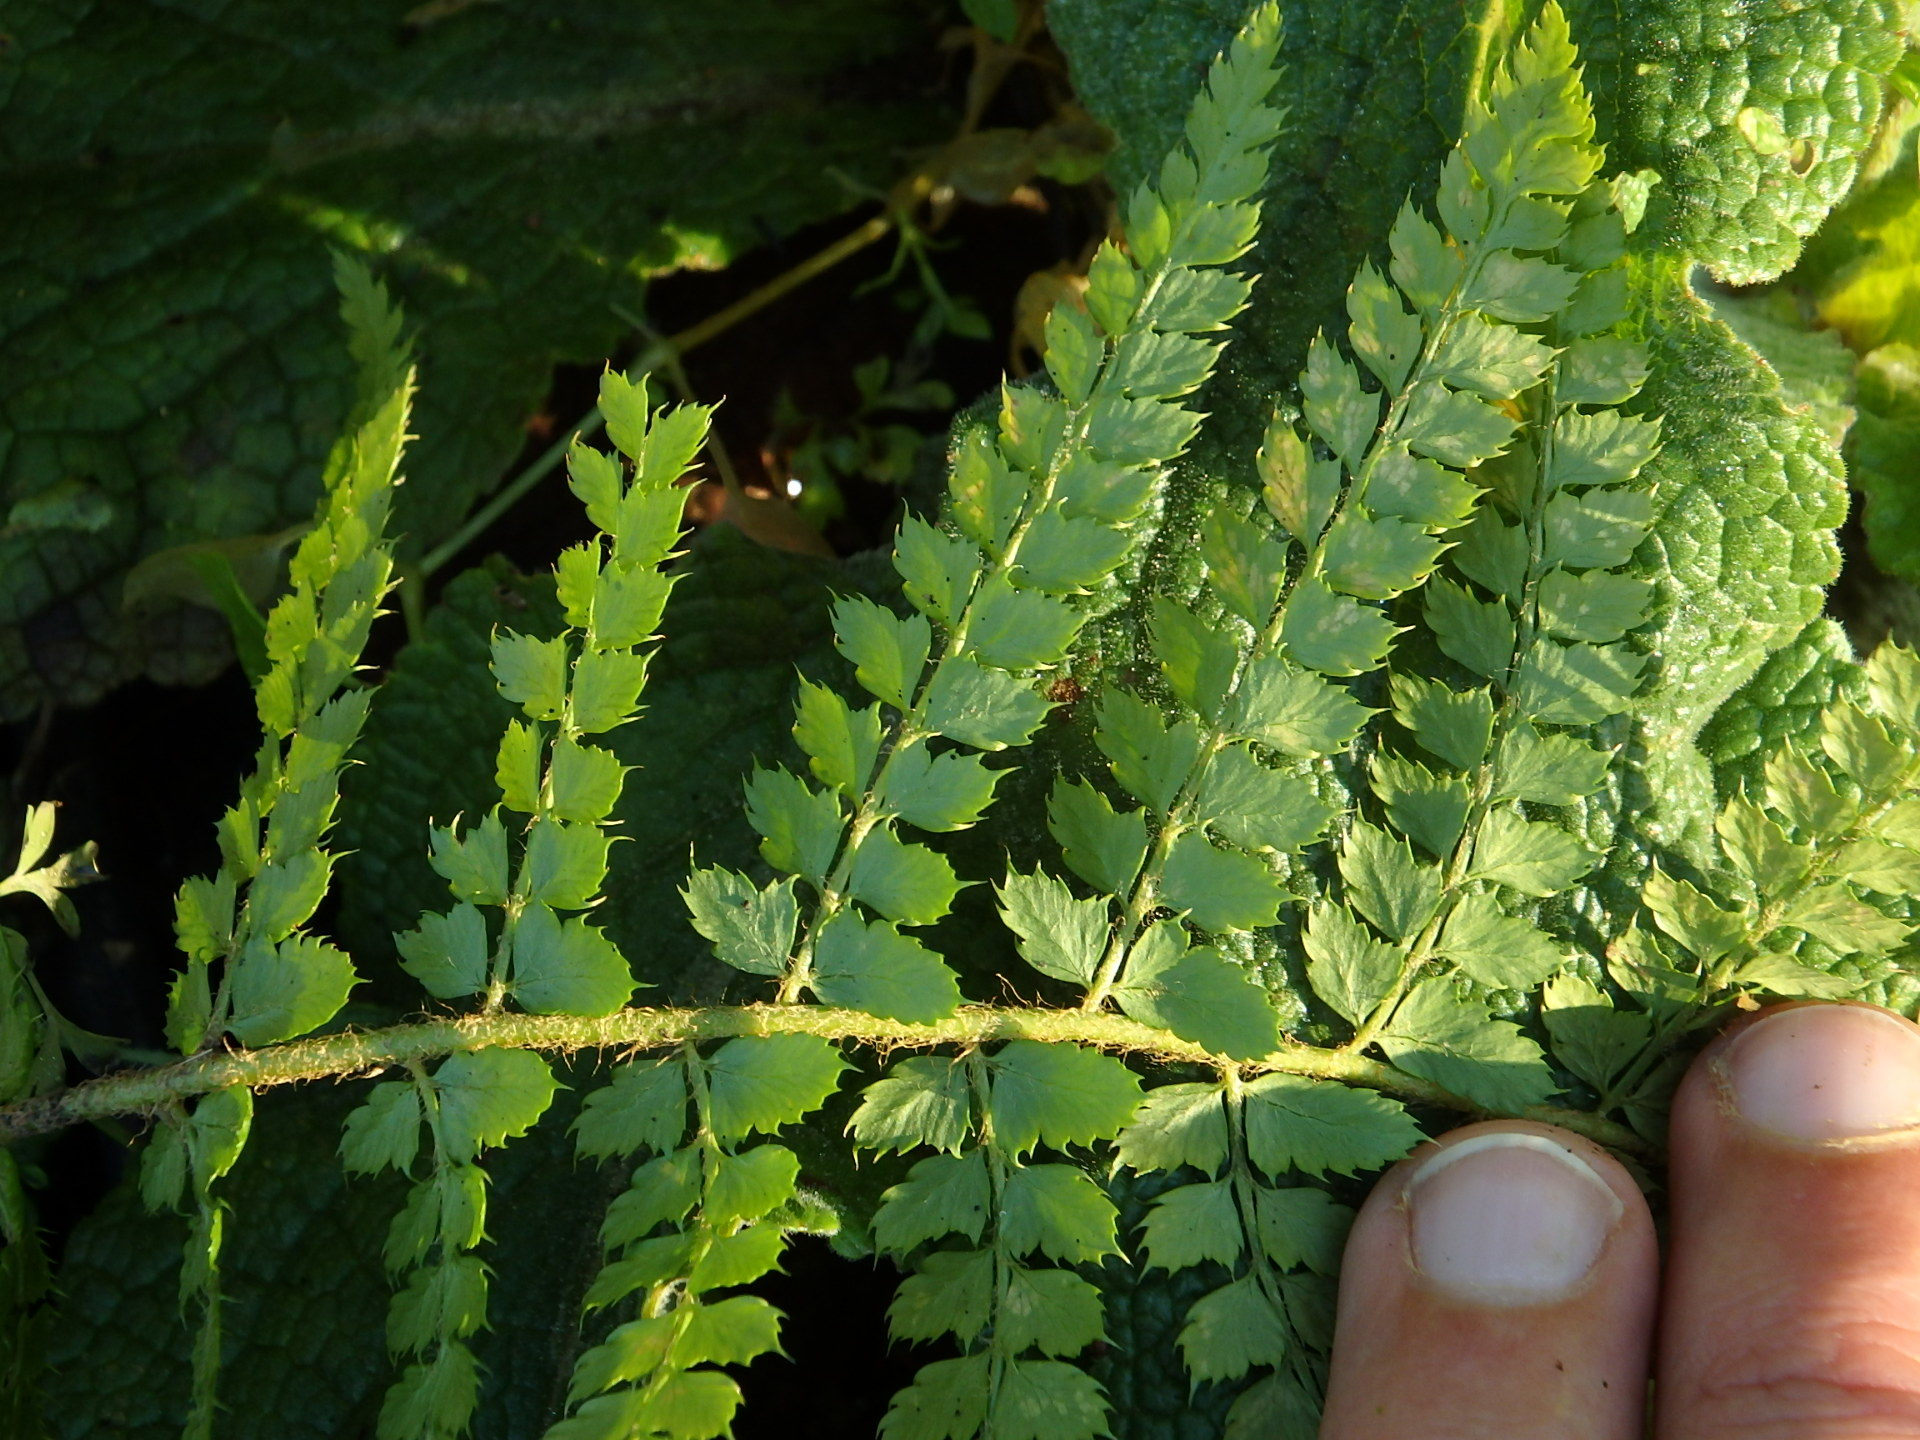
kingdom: Plantae
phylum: Tracheophyta
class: Polypodiopsida
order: Polypodiales
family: Dryopteridaceae
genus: Polystichum
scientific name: Polystichum setiferum
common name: Soft shield-fern
